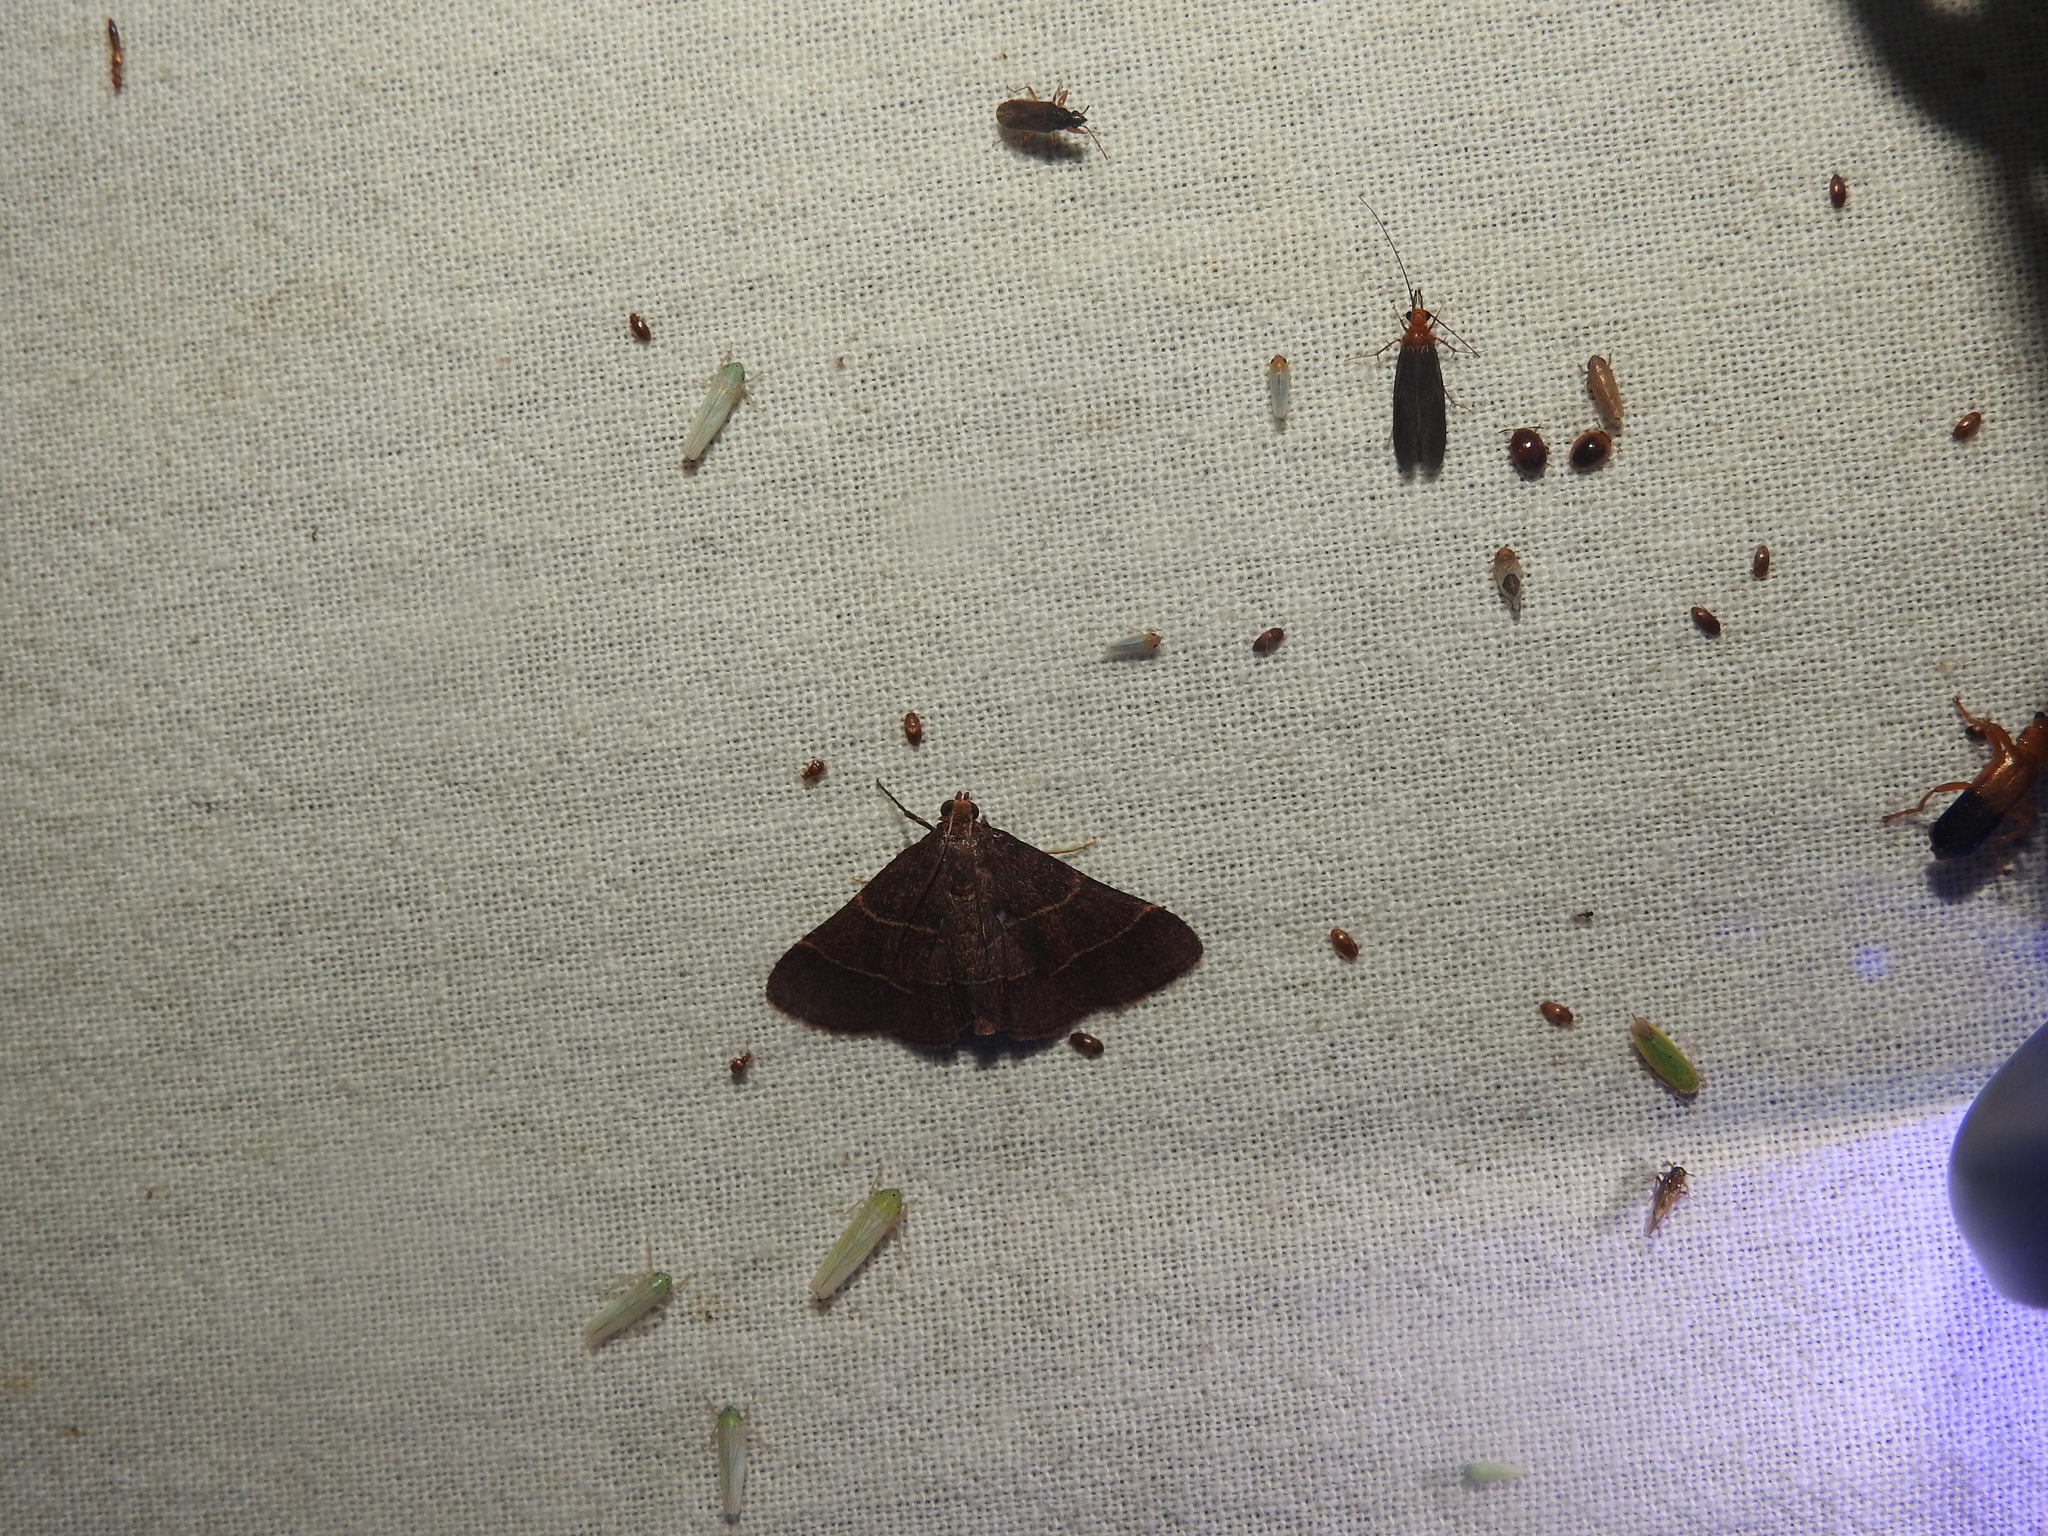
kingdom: Animalia
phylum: Arthropoda
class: Insecta
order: Hemiptera
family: Rhyparochromidae
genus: Remaudiereana
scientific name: Remaudiereana flavipes
